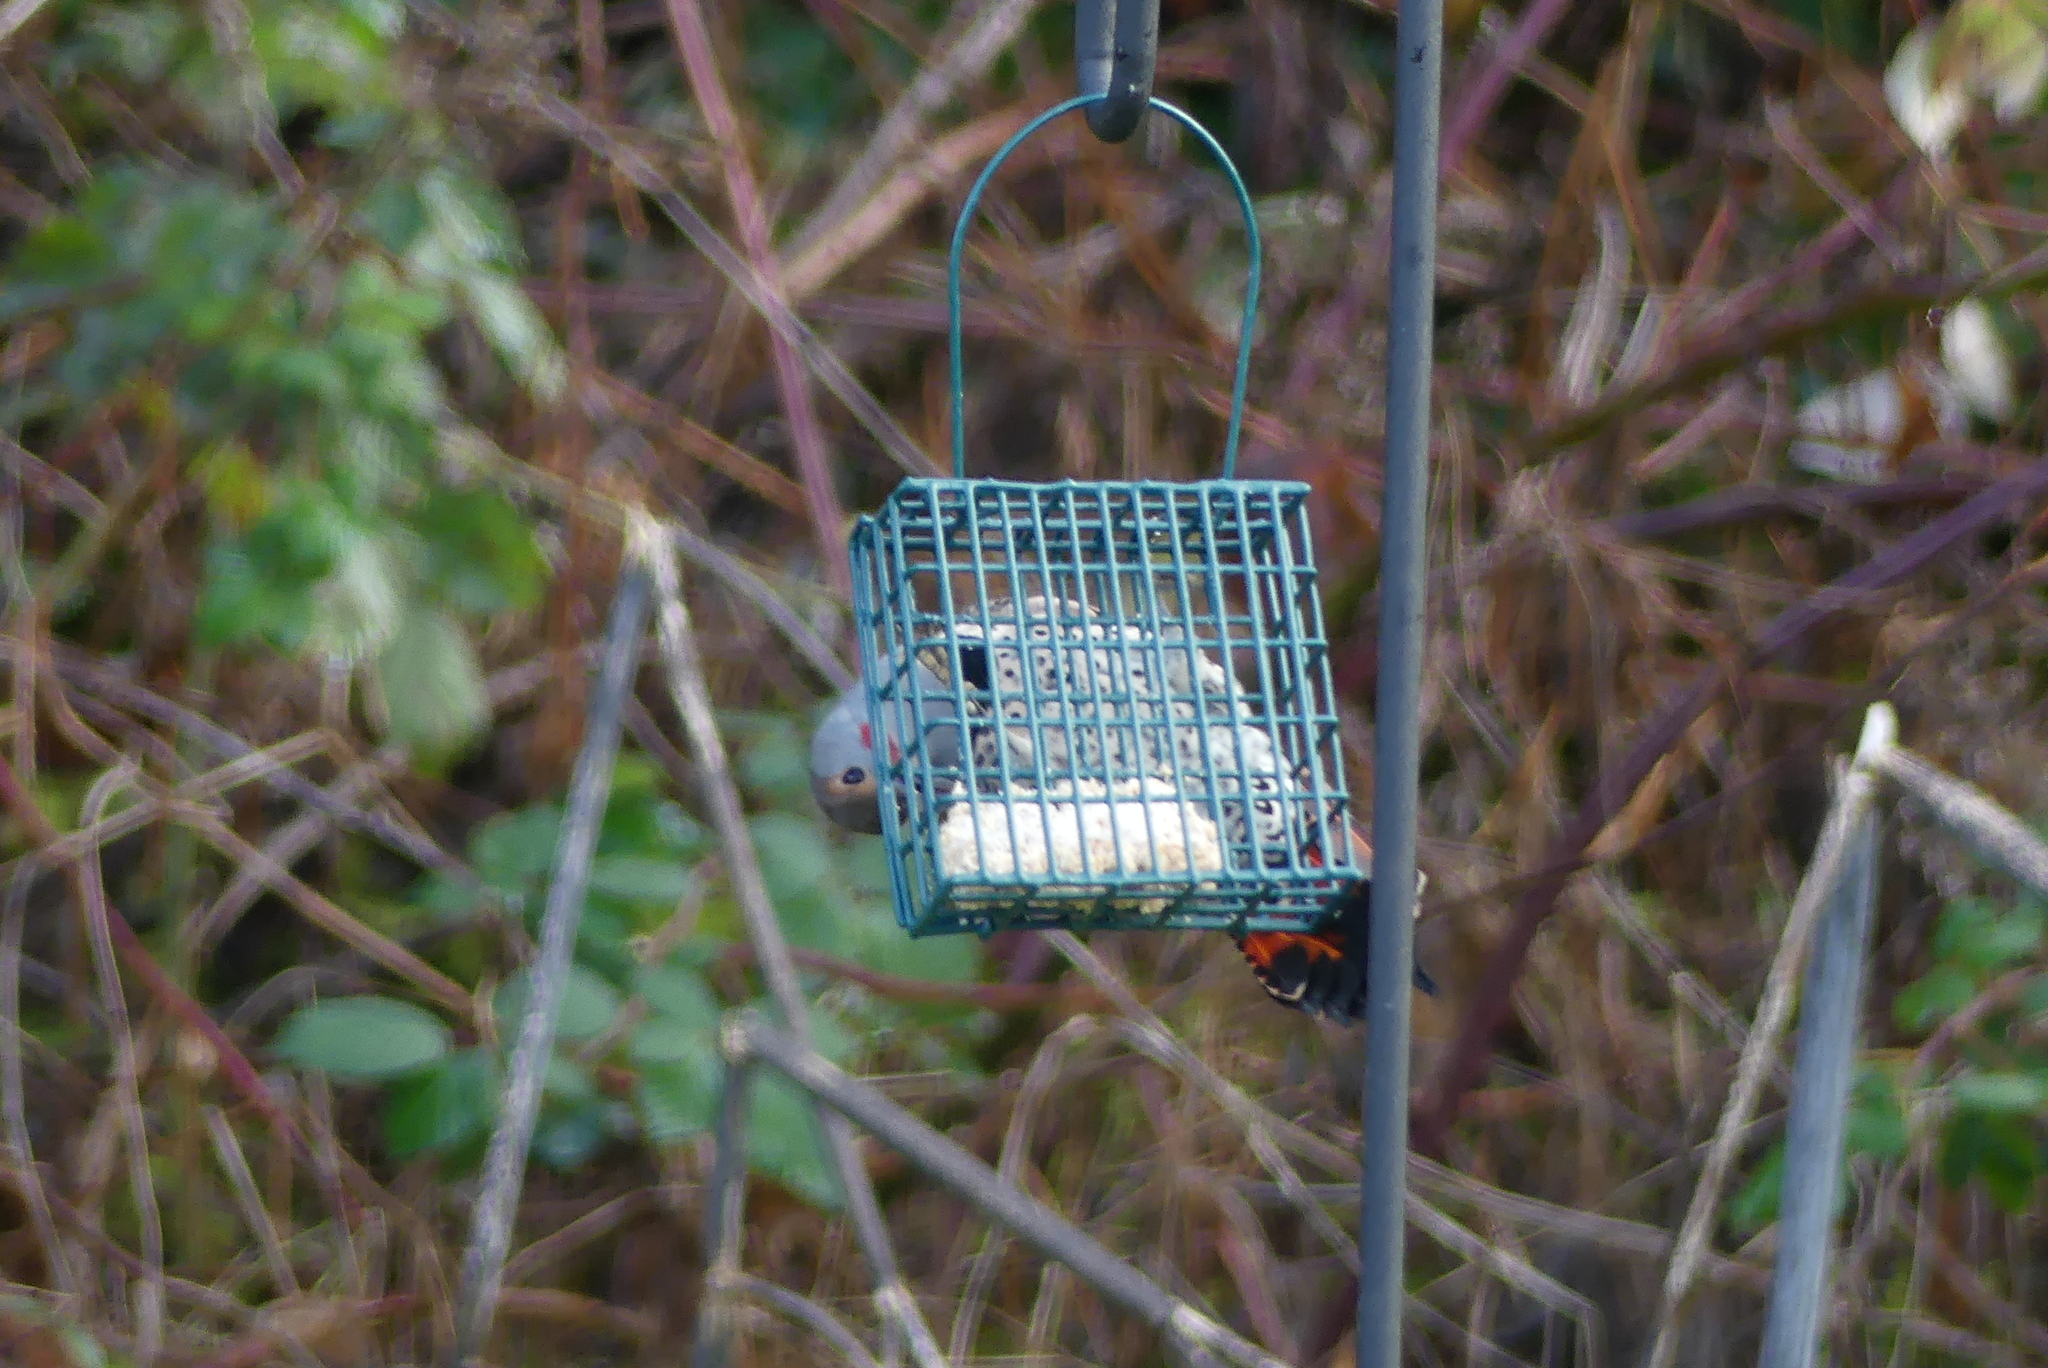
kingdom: Animalia
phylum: Chordata
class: Aves
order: Piciformes
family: Picidae
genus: Colaptes
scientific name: Colaptes auratus
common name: Northern flicker
